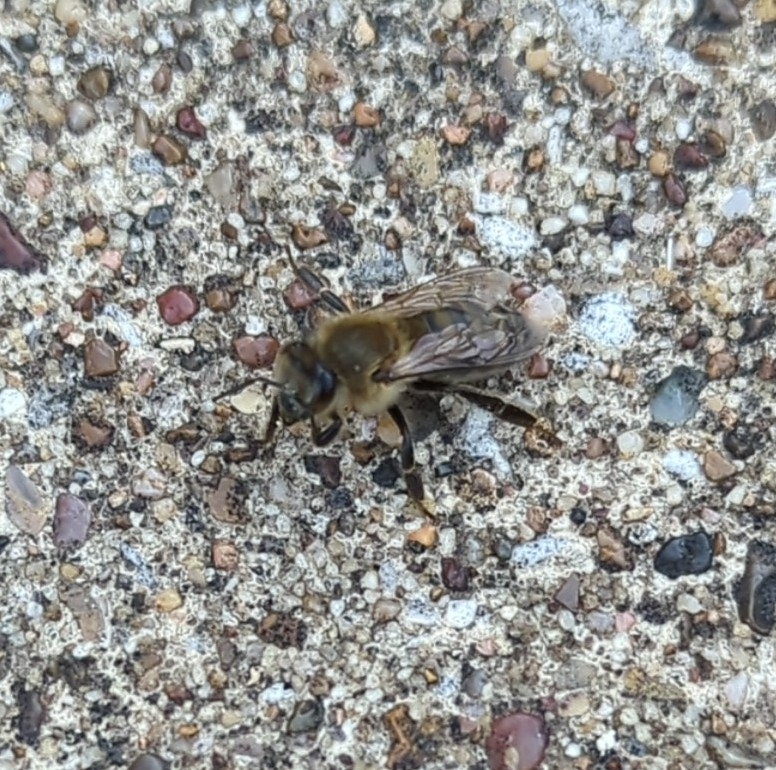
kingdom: Animalia
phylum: Arthropoda
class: Insecta
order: Hymenoptera
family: Apidae
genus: Apis
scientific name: Apis mellifera
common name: Honey bee
